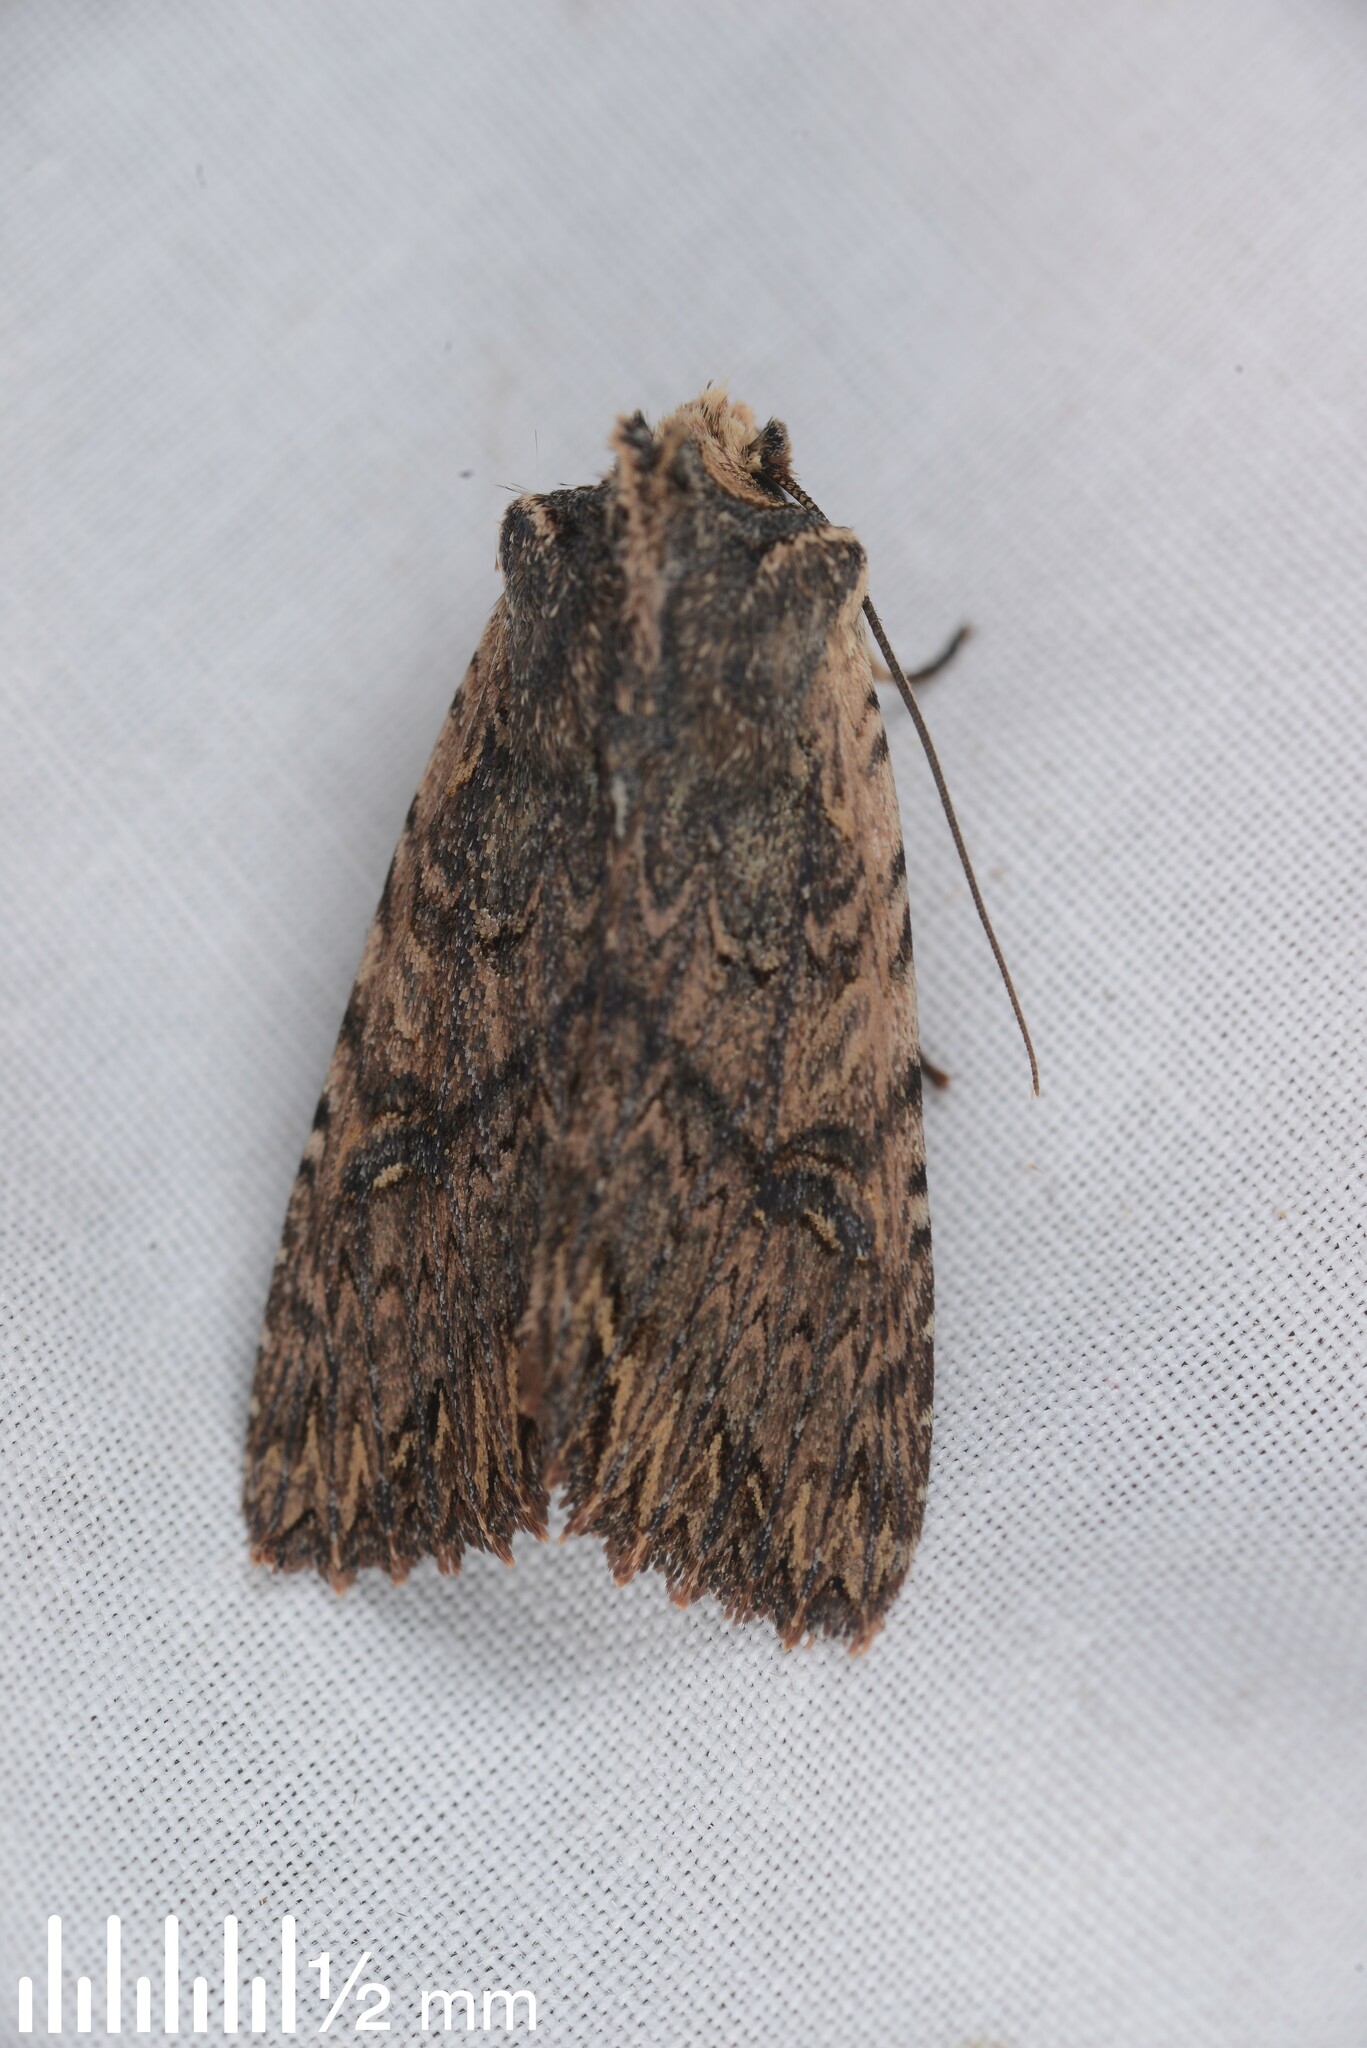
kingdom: Animalia
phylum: Arthropoda
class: Insecta
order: Lepidoptera
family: Noctuidae
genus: Meterana
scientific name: Meterana alcyone
